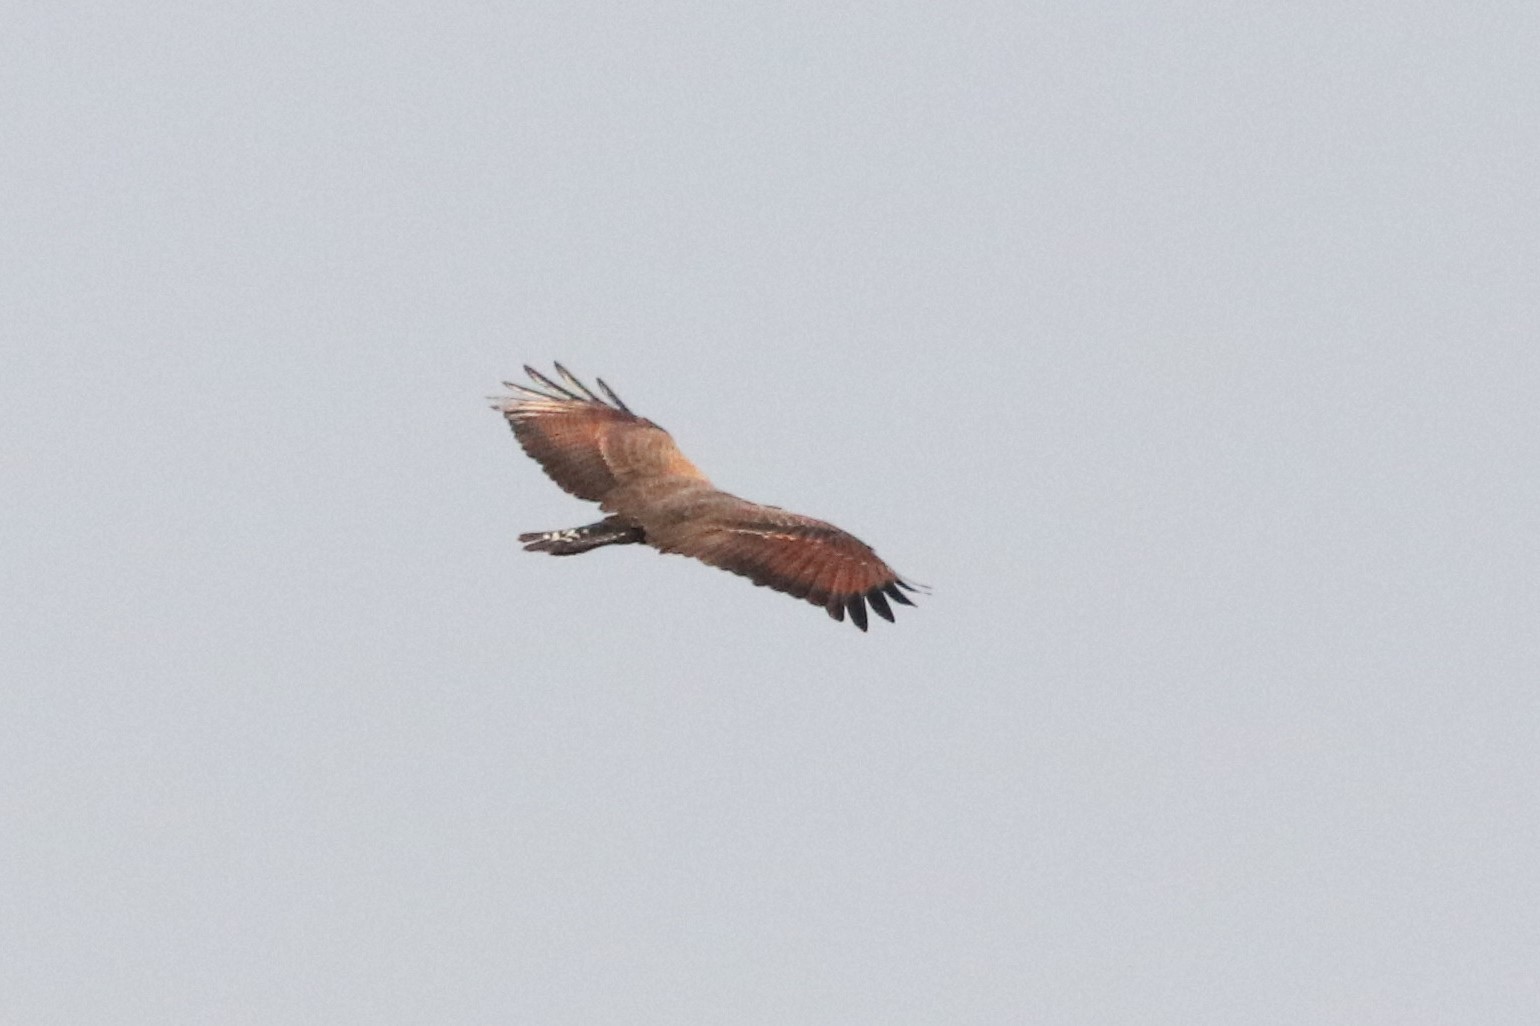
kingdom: Animalia
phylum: Chordata
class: Aves
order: Accipitriformes
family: Accipitridae
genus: Buteogallus
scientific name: Buteogallus meridionalis
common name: Savanna hawk
